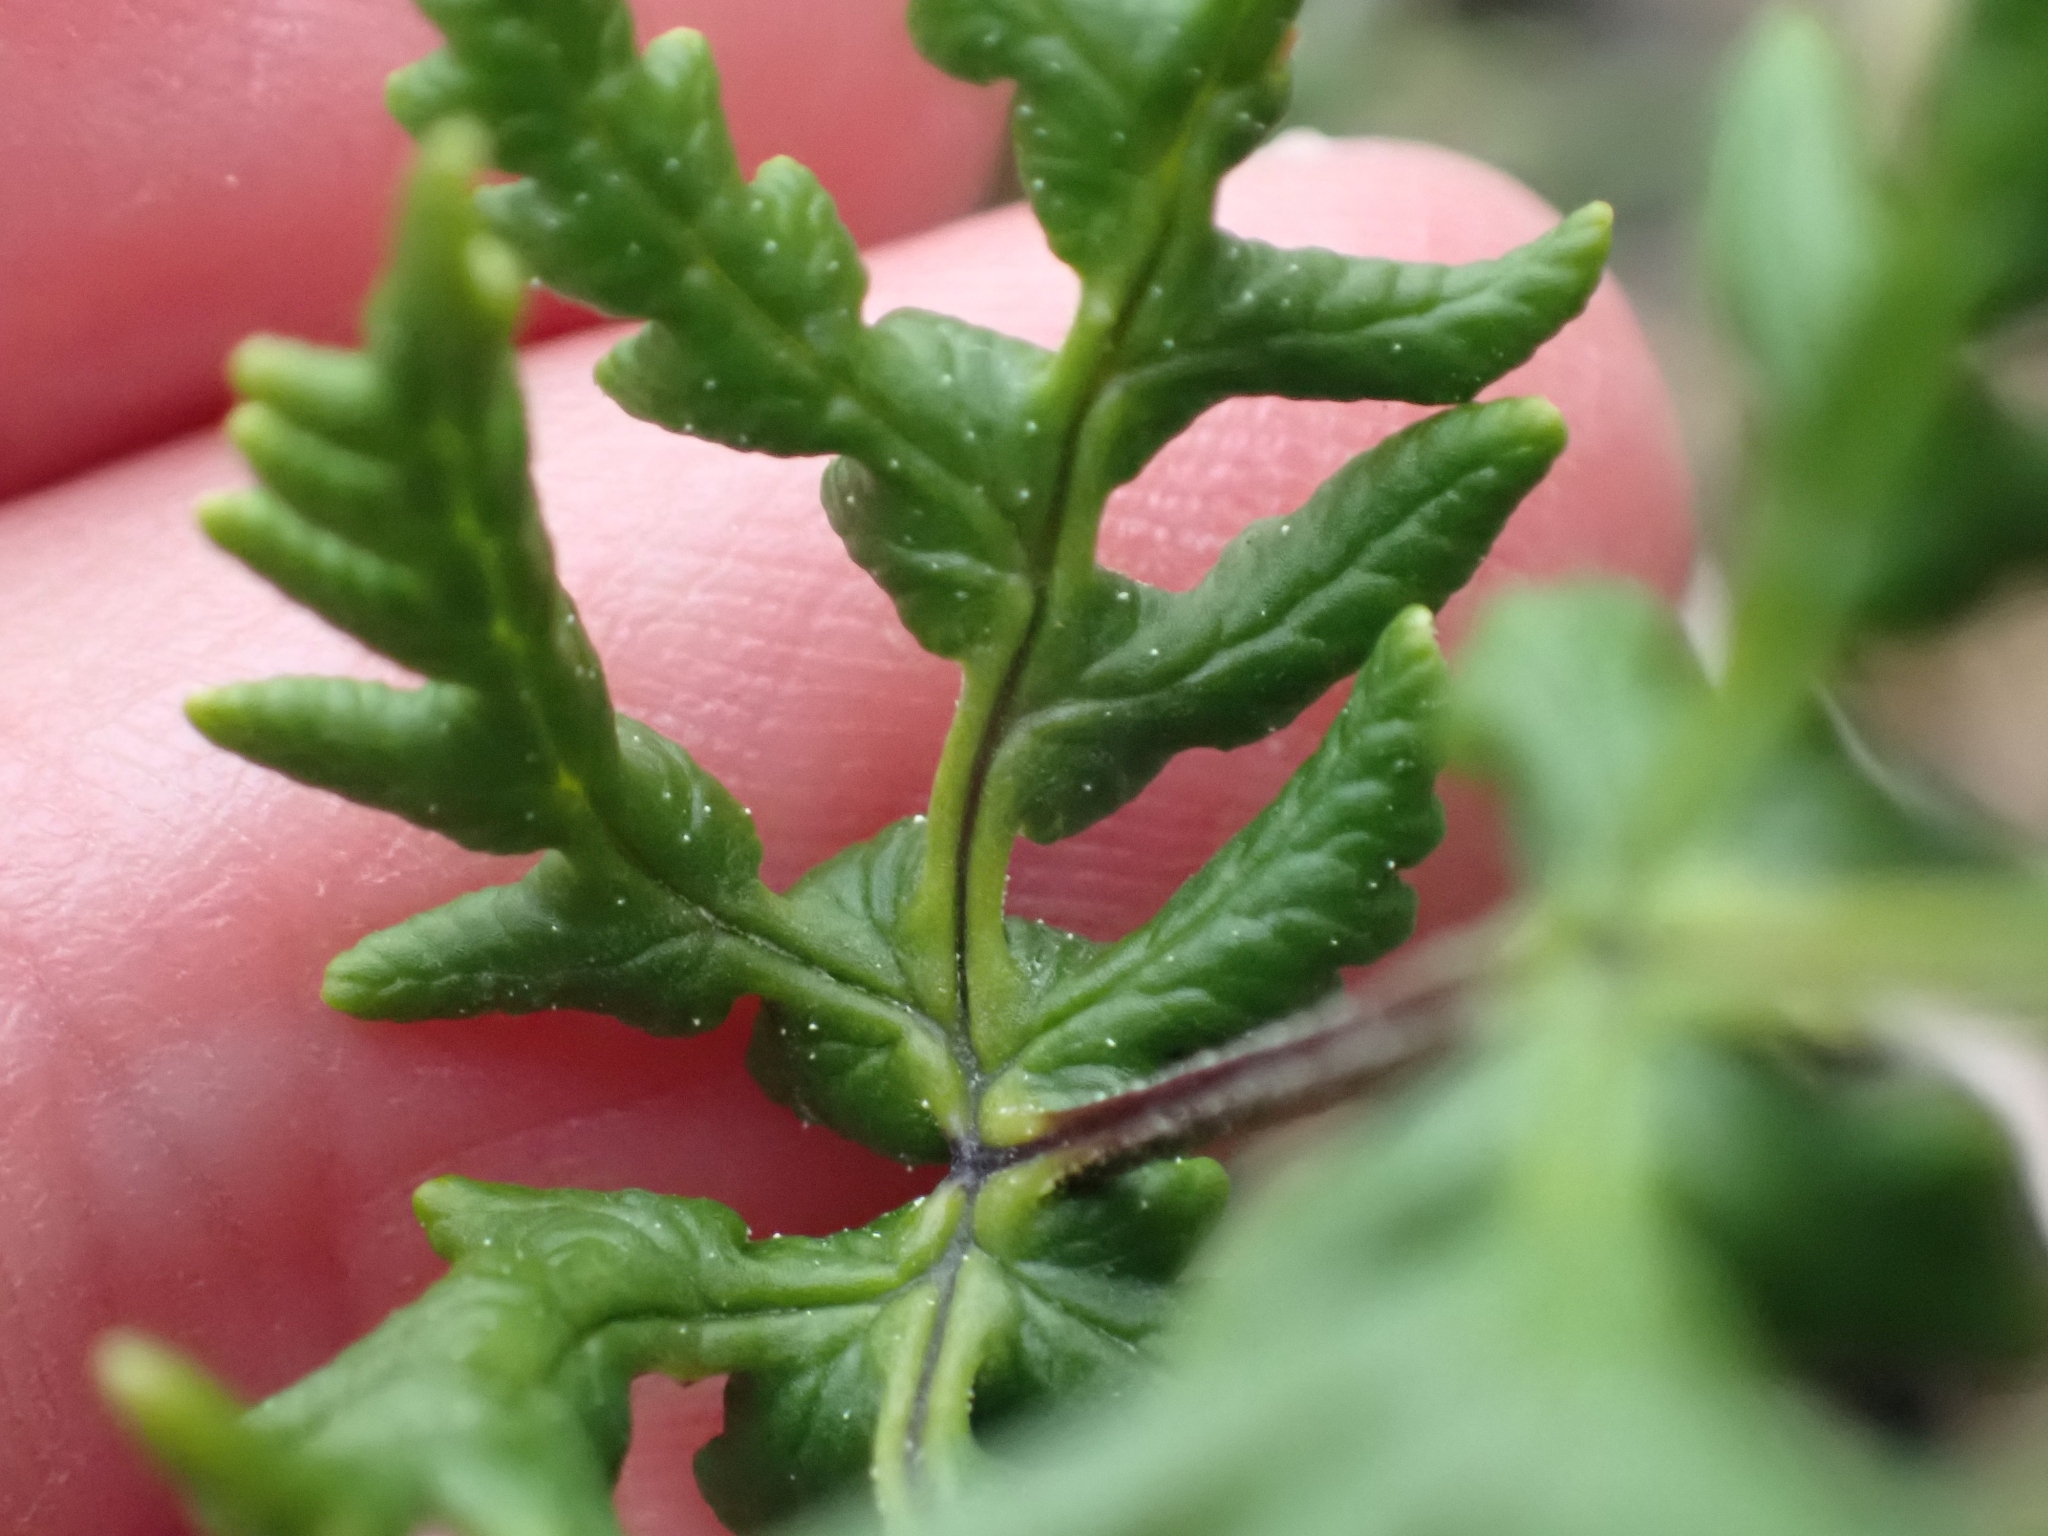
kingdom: Plantae
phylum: Tracheophyta
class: Polypodiopsida
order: Polypodiales
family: Pteridaceae
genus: Pentagramma
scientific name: Pentagramma triangularis
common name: Gold fern
